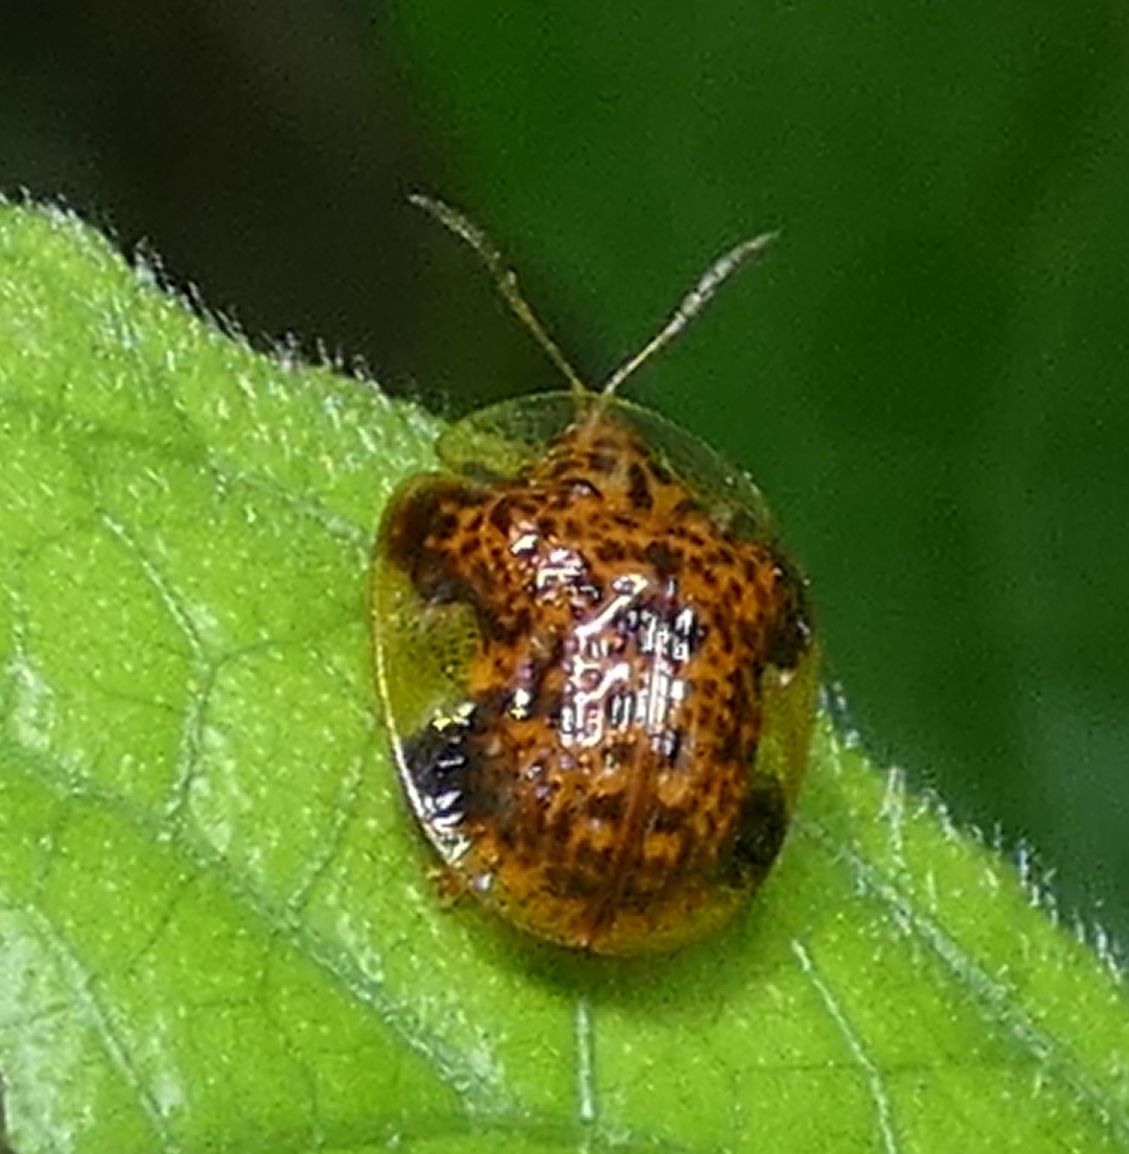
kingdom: Animalia
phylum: Arthropoda
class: Insecta
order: Coleoptera
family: Chrysomelidae
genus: Microctenochira
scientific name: Microctenochira optata
